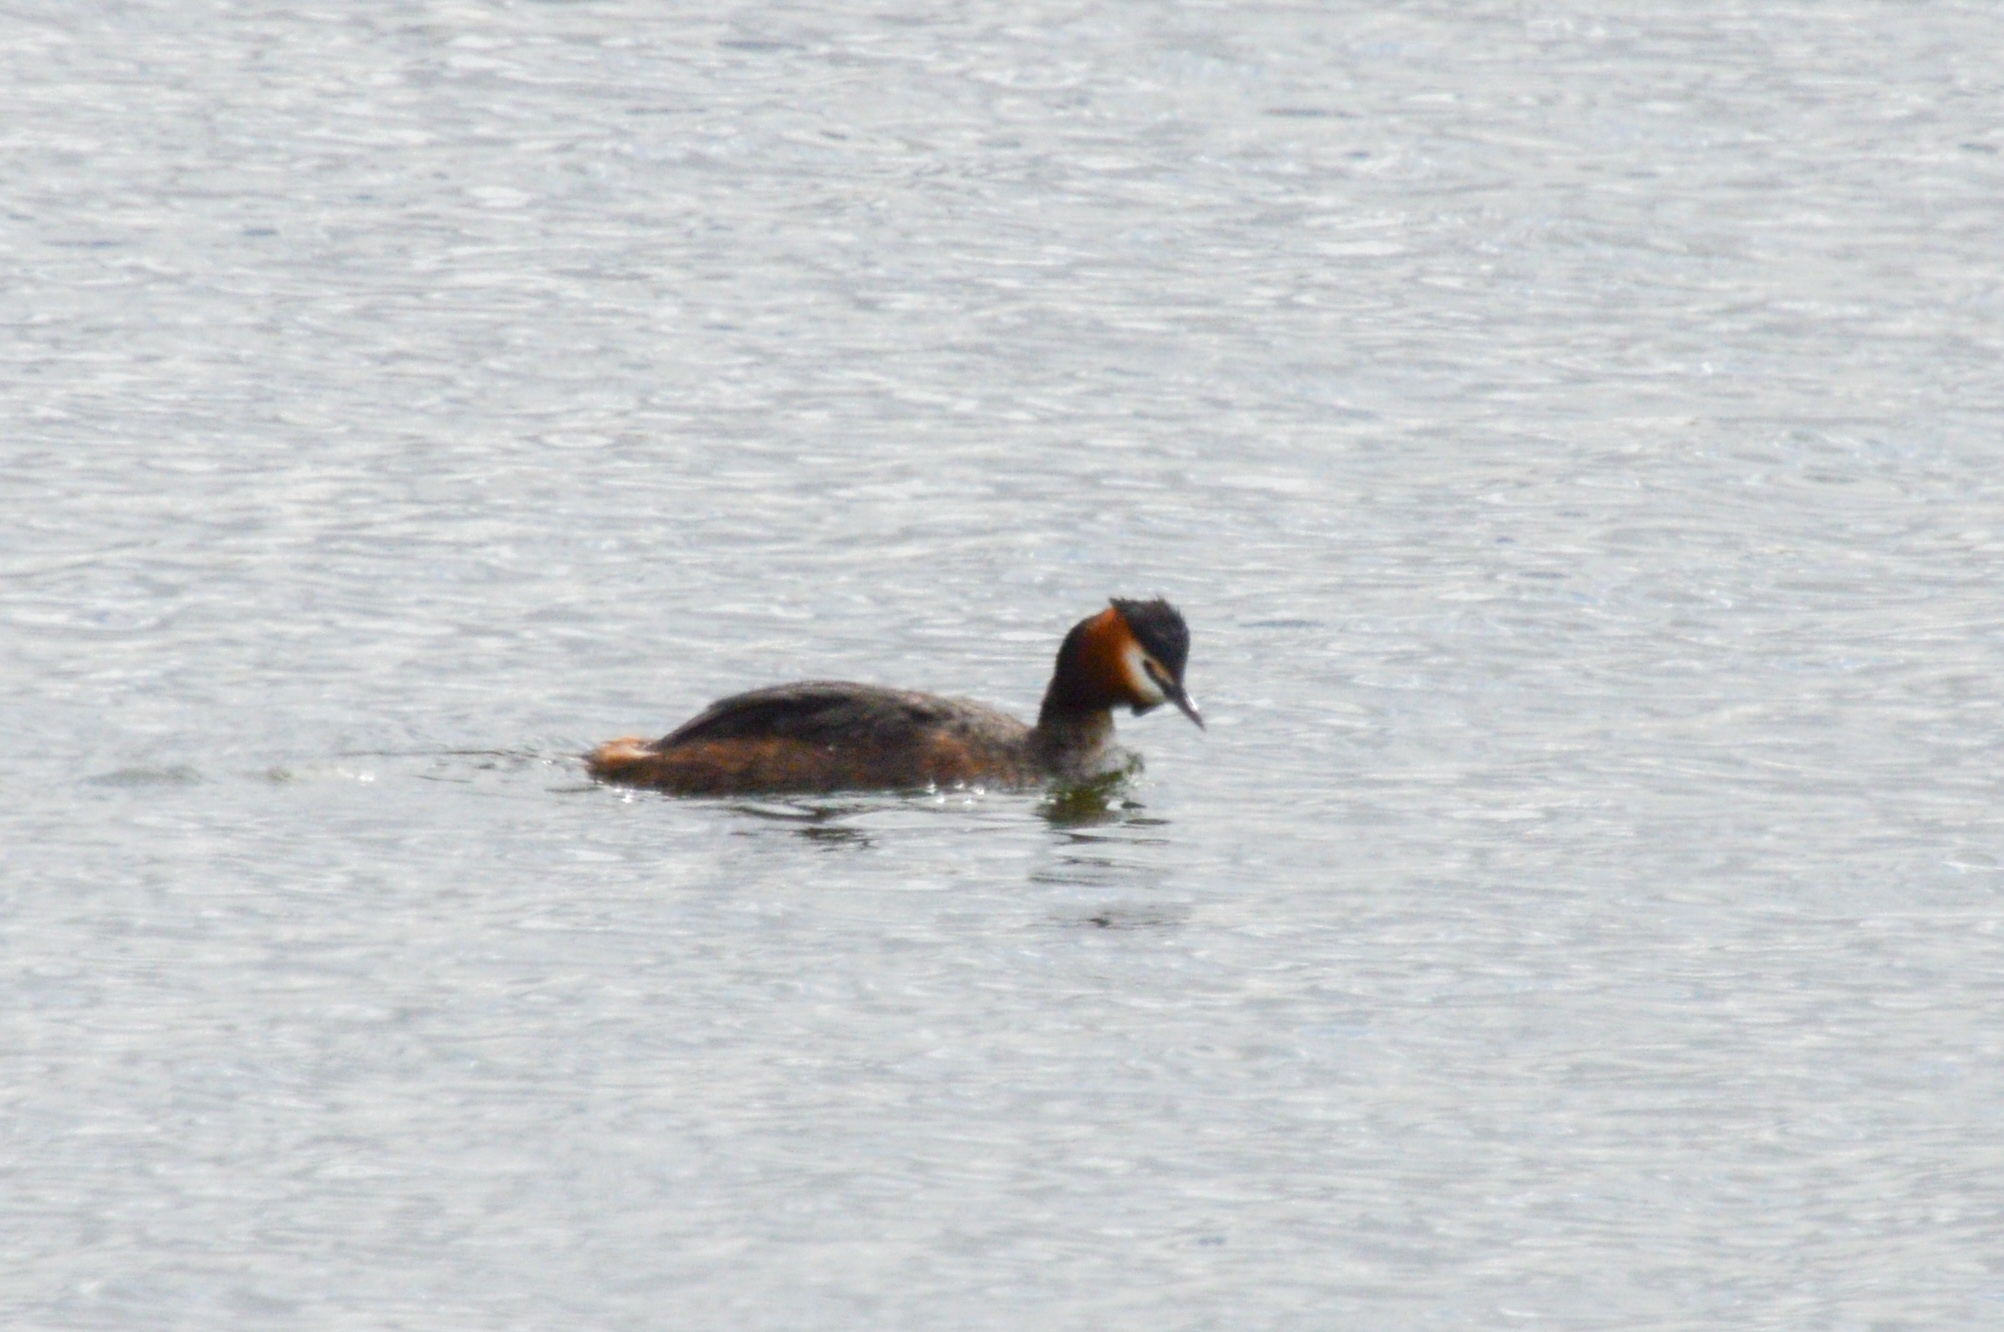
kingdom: Animalia
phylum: Chordata
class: Aves
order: Podicipediformes
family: Podicipedidae
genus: Podiceps
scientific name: Podiceps cristatus
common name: Great crested grebe
